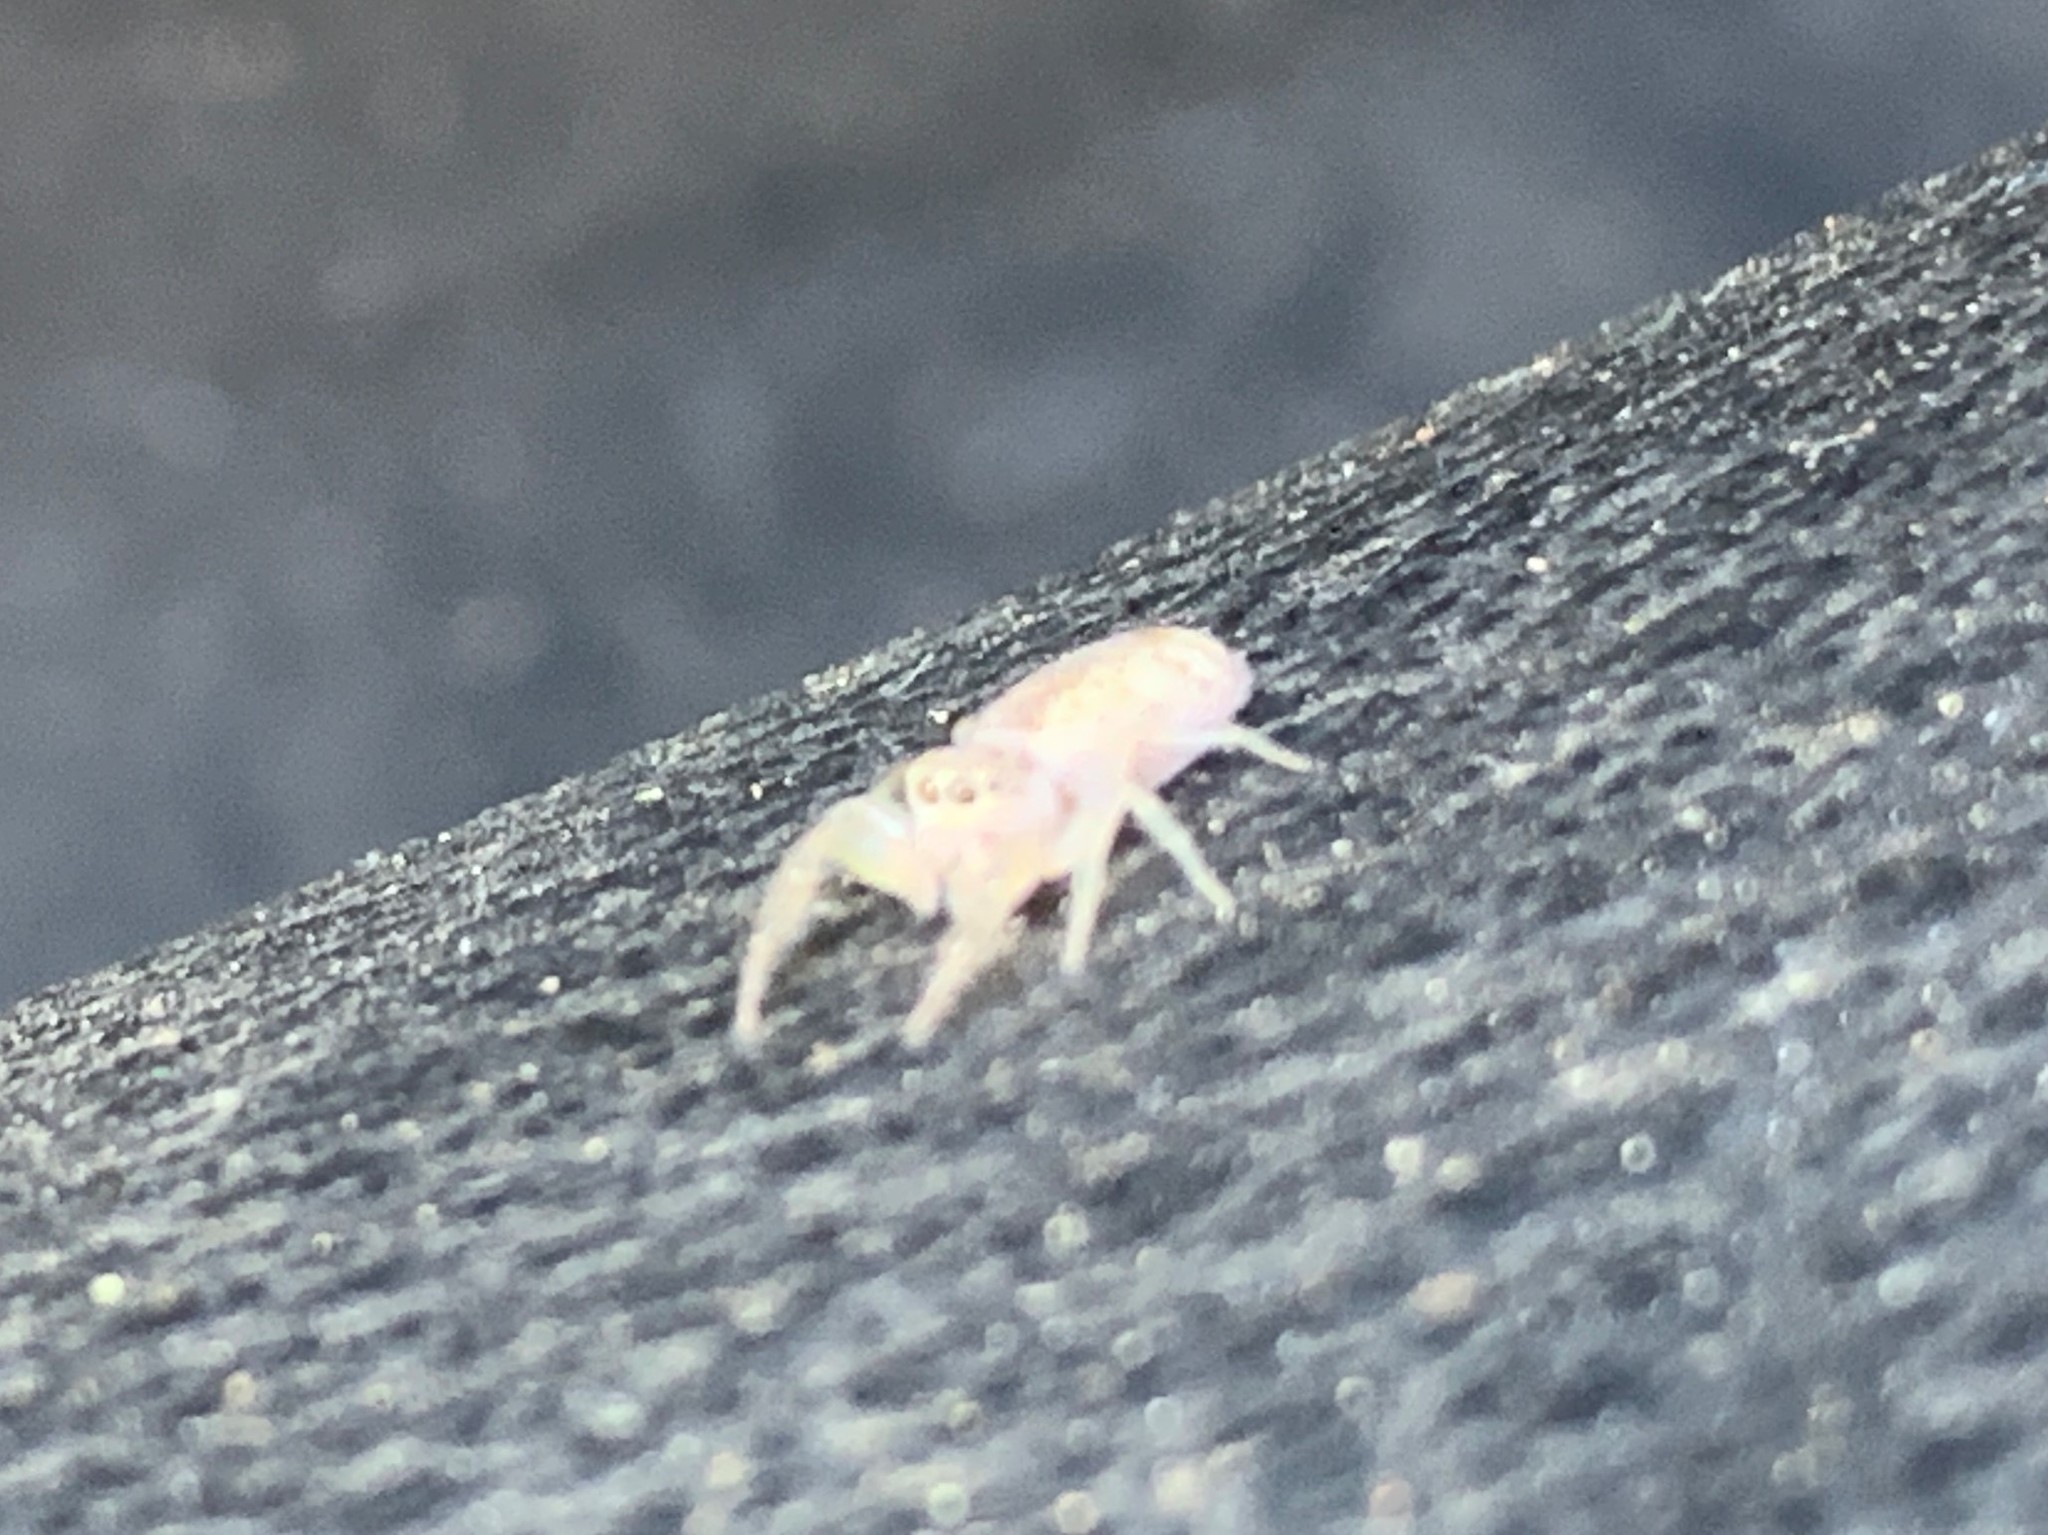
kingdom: Animalia
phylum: Arthropoda
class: Arachnida
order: Araneae
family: Salticidae
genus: Hentzia
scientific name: Hentzia mitrata
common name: White-jawed jumping spider
